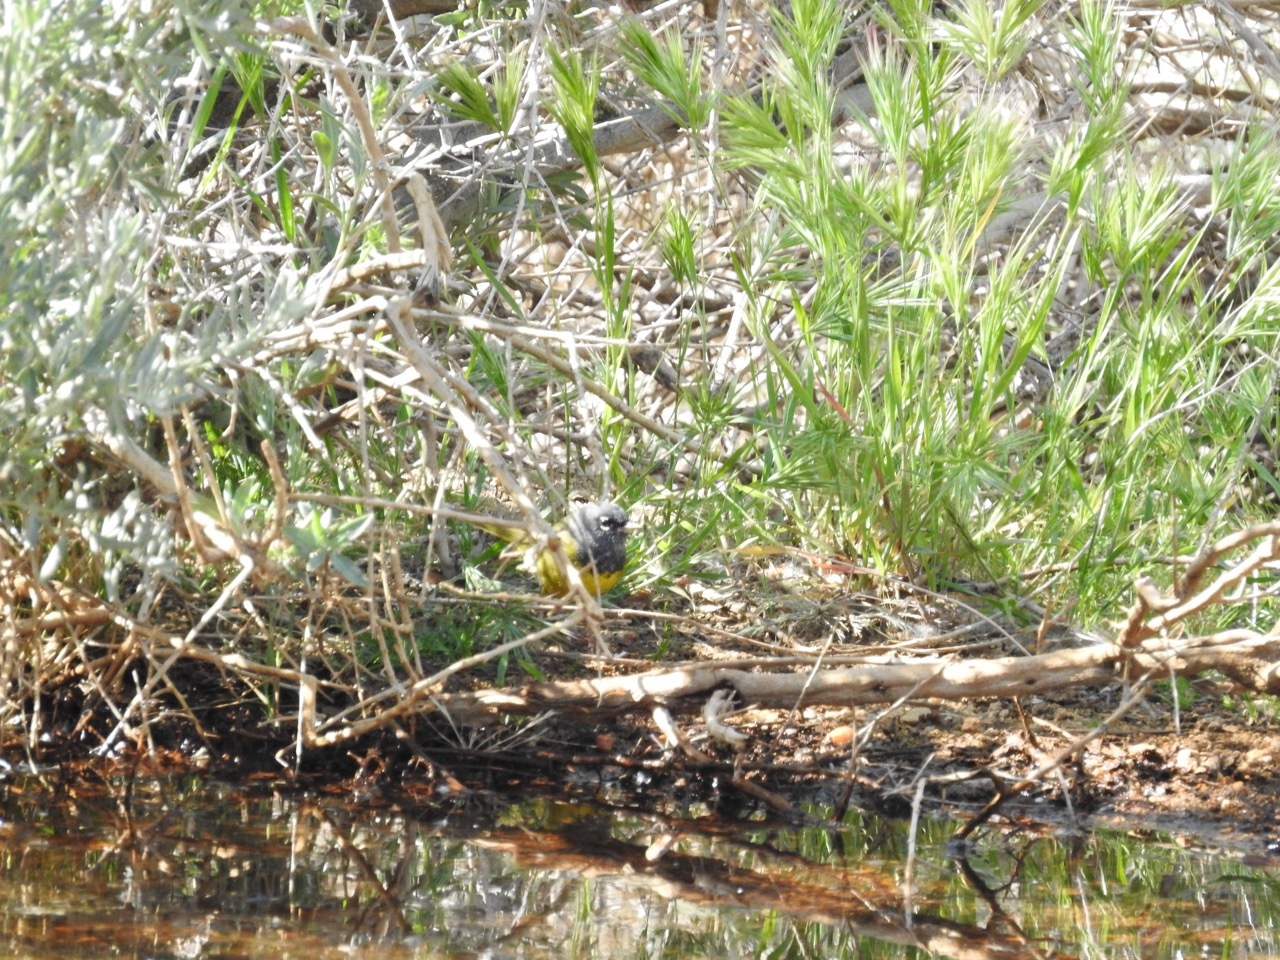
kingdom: Animalia
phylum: Chordata
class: Aves
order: Passeriformes
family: Parulidae
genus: Geothlypis
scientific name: Geothlypis tolmiei
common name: Macgillivray's warbler
